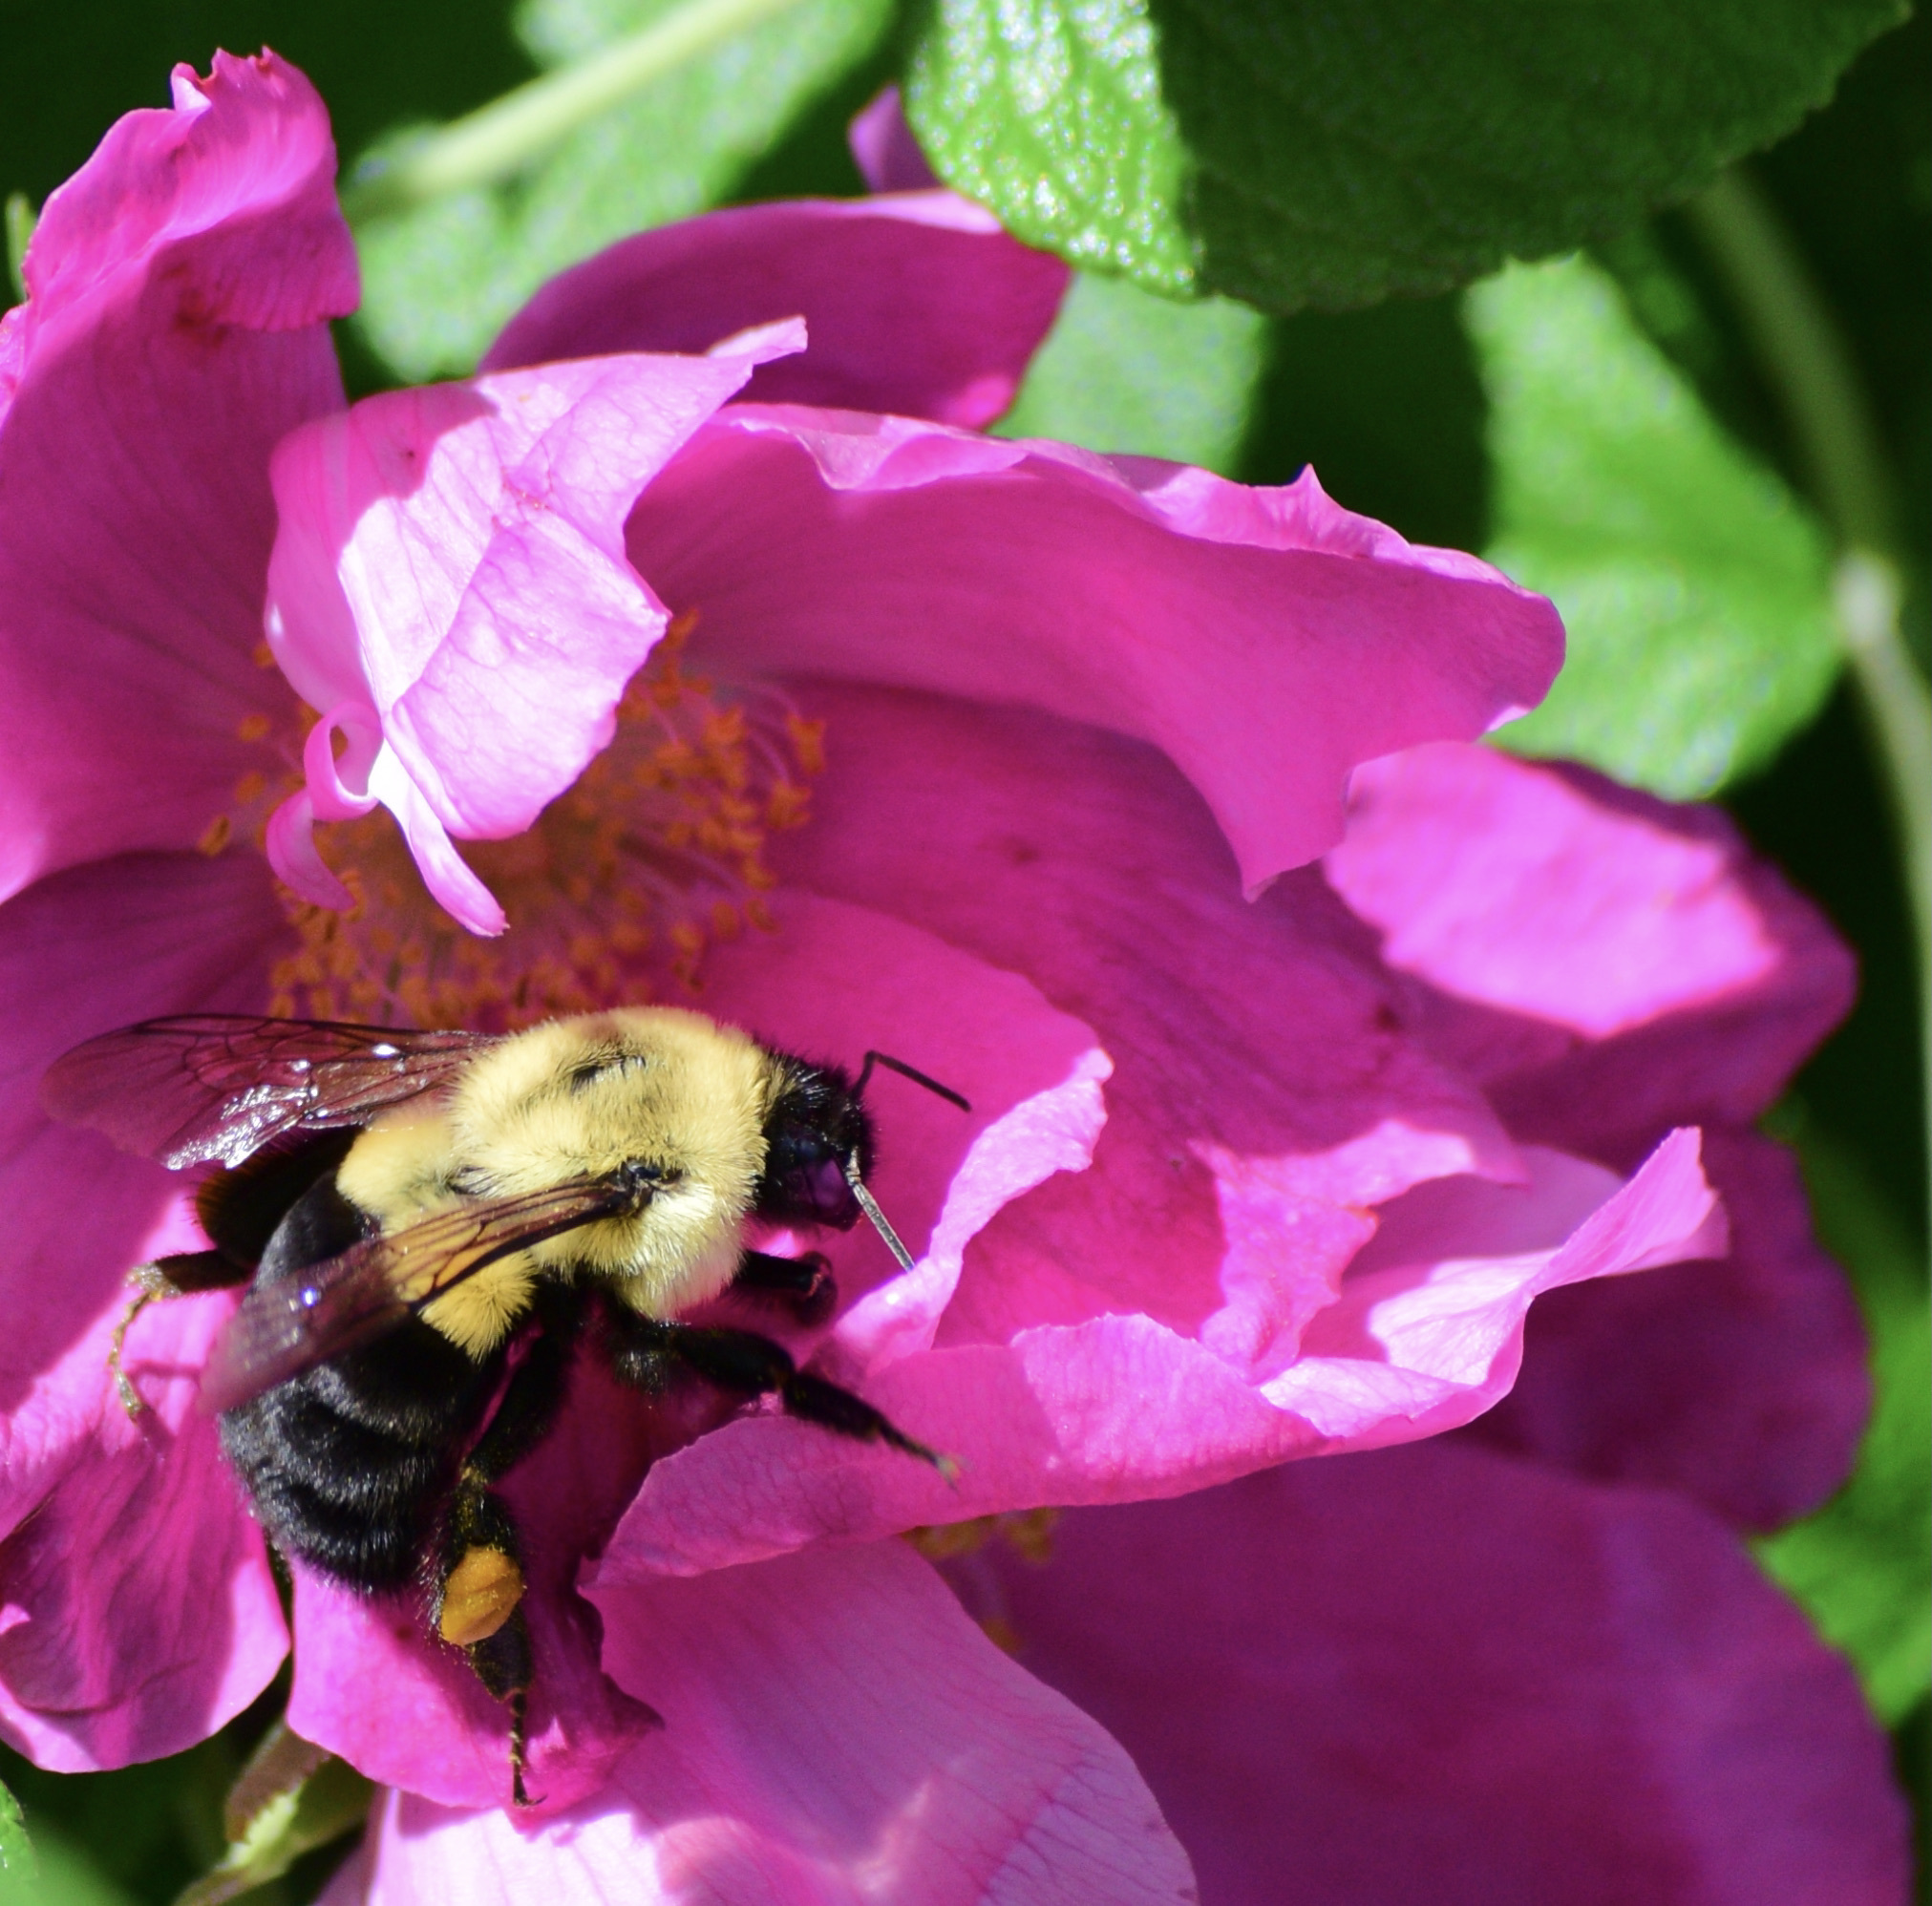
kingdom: Animalia
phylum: Arthropoda
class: Insecta
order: Hymenoptera
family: Apidae
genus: Bombus
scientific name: Bombus impatiens
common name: Common eastern bumble bee
